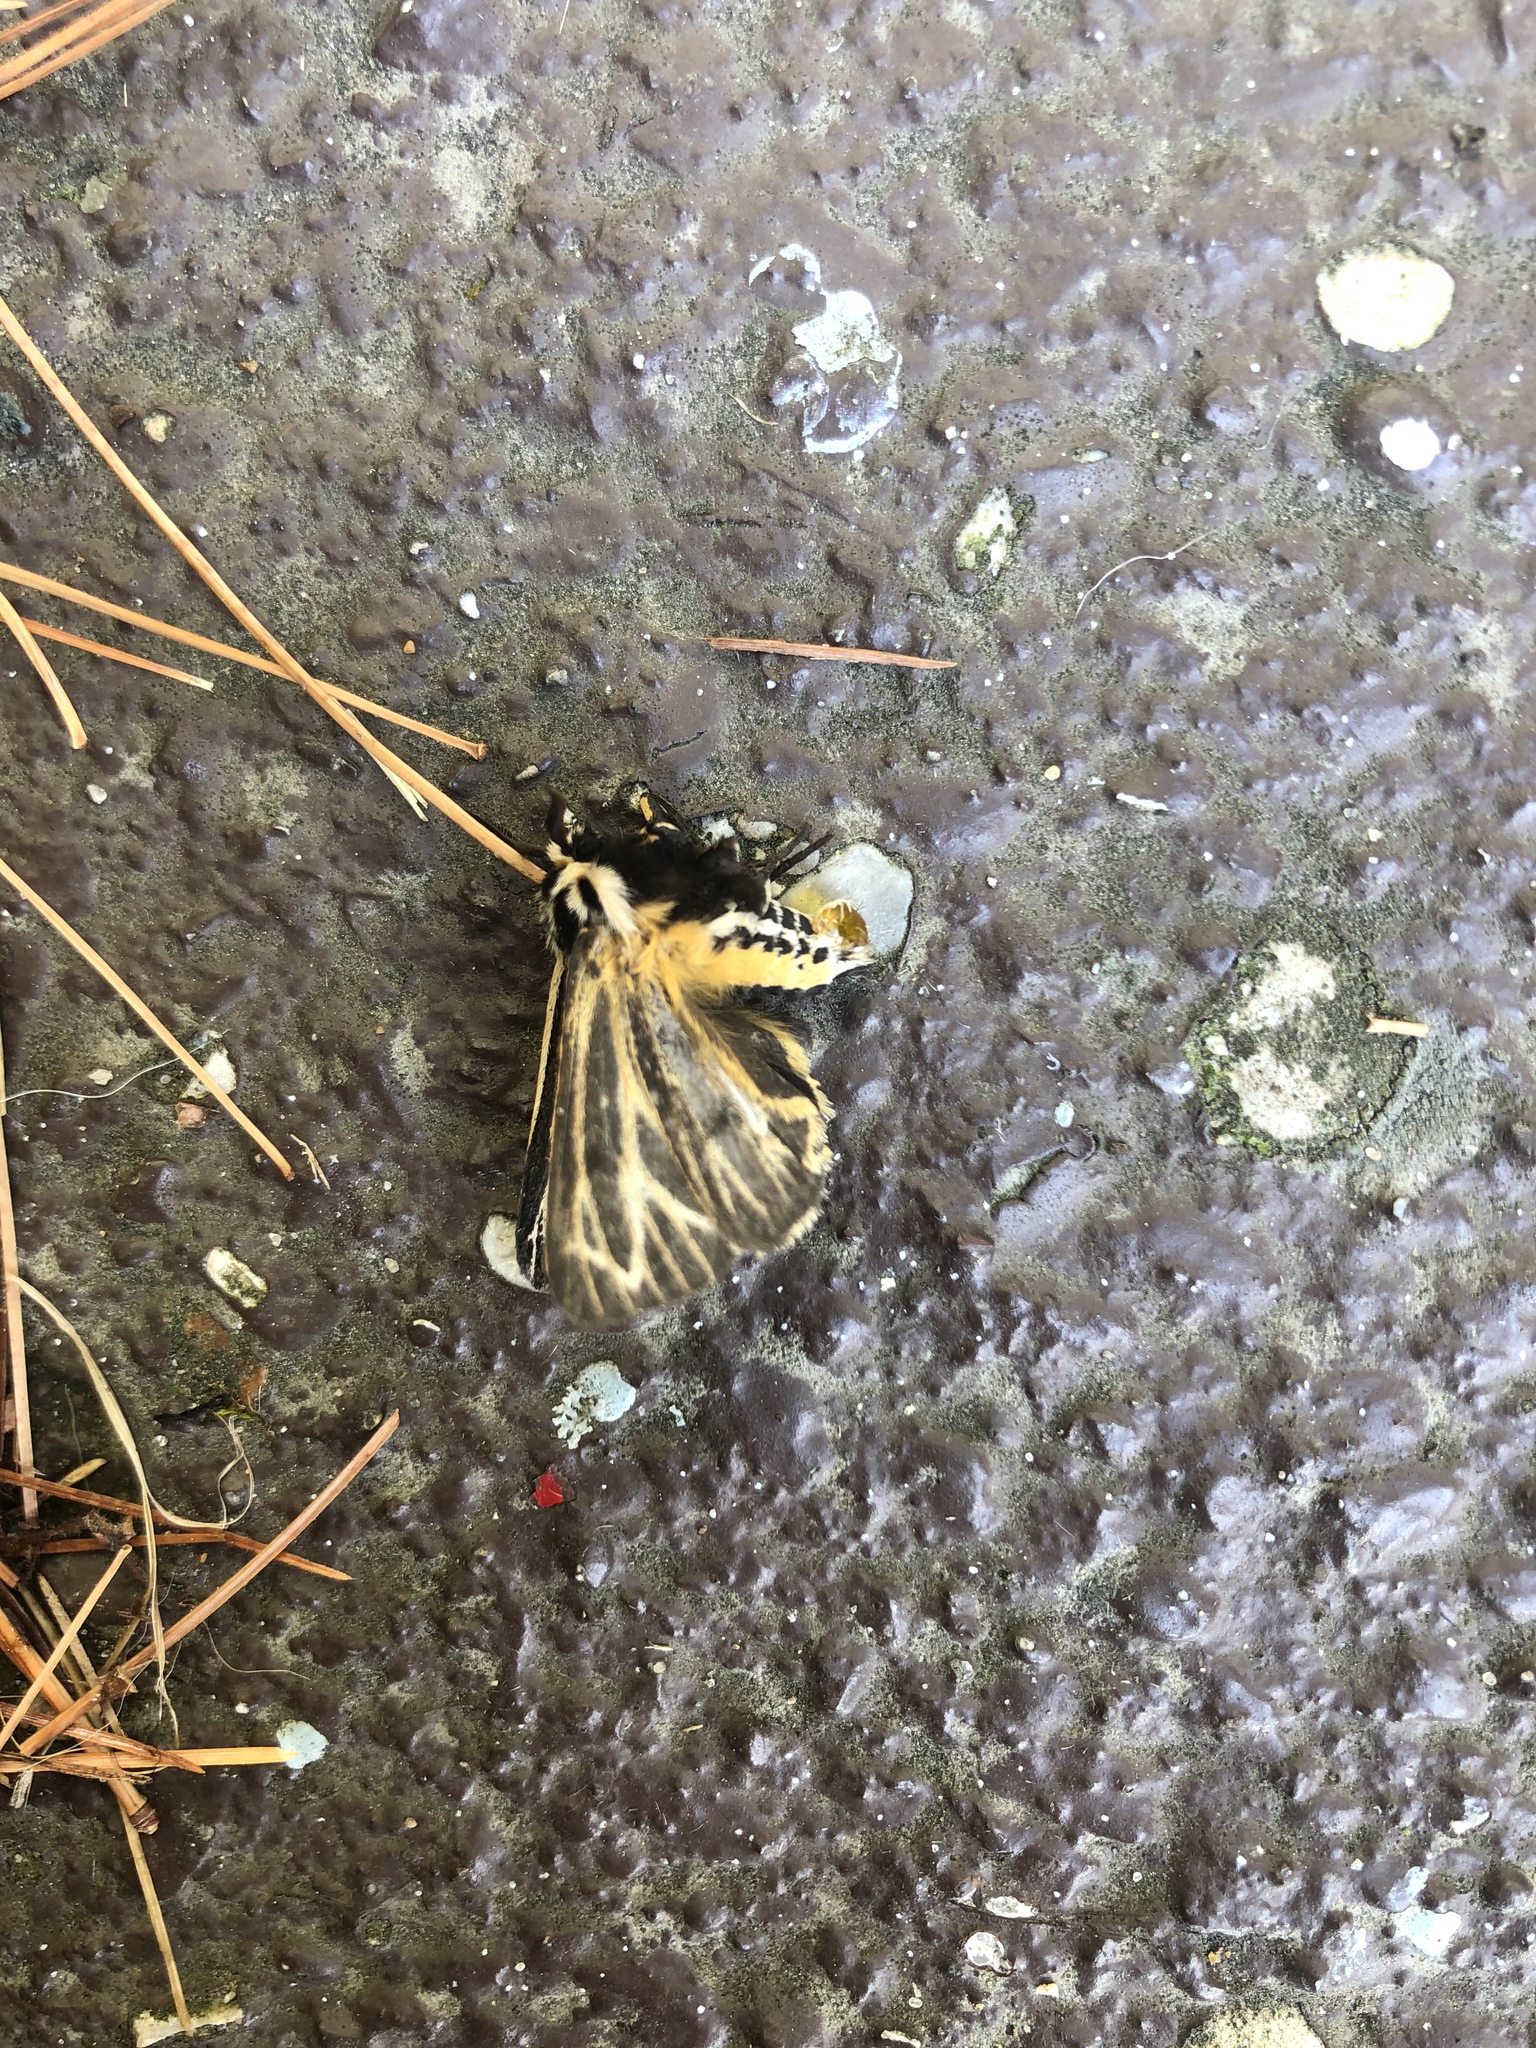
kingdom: Animalia
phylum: Arthropoda
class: Insecta
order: Lepidoptera
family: Erebidae
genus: Grammia
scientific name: Grammia virguncula
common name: Little tiger moth
